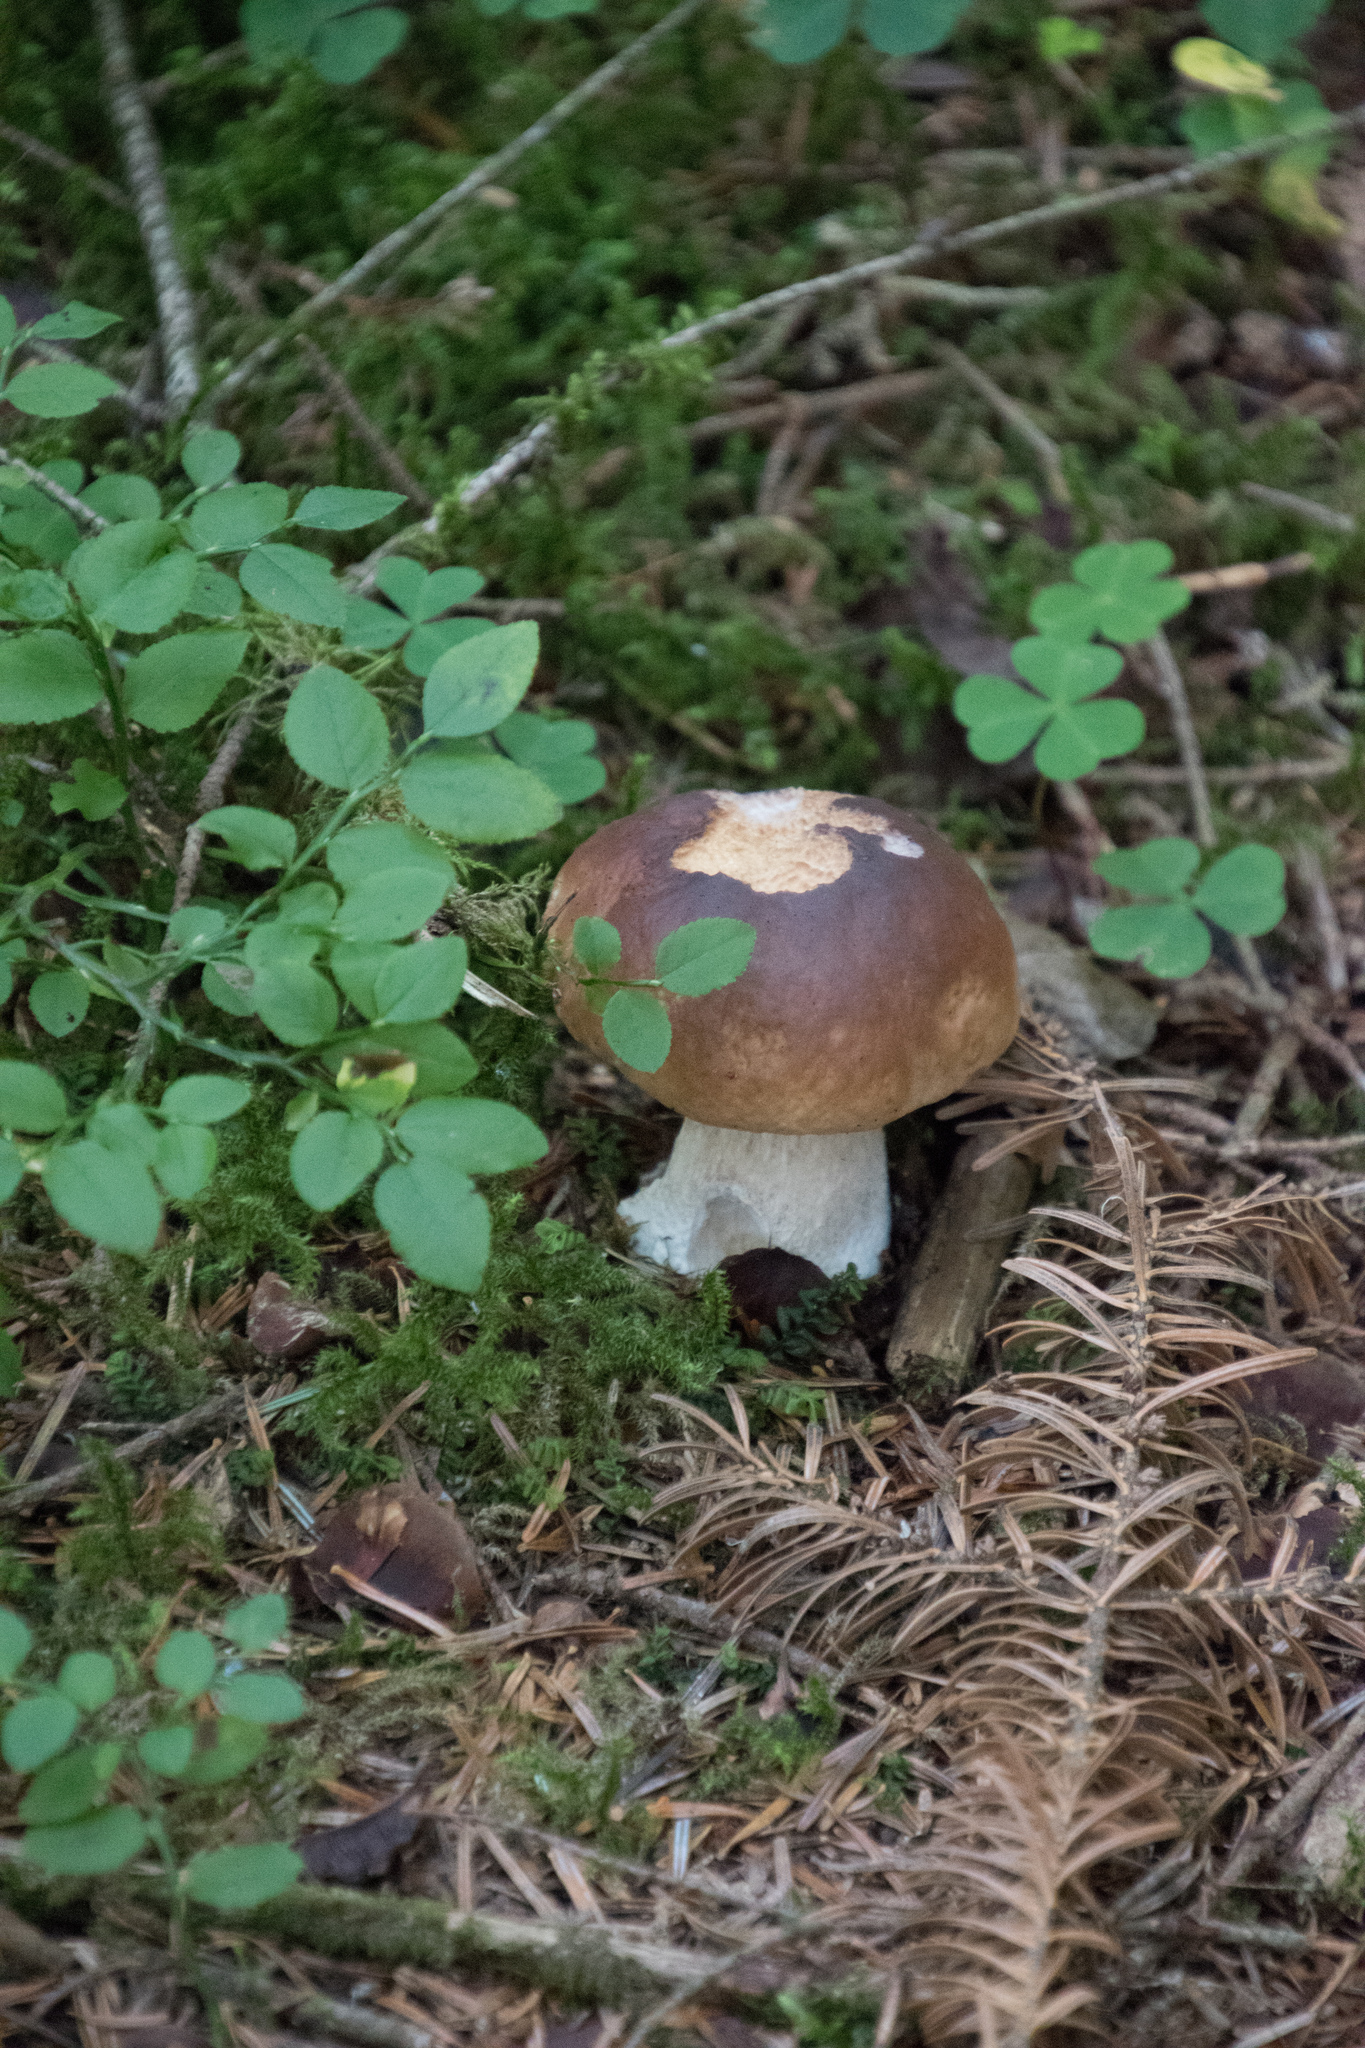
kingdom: Fungi
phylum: Basidiomycota
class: Agaricomycetes
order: Boletales
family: Boletaceae
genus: Boletus
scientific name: Boletus edulis
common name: Cep
